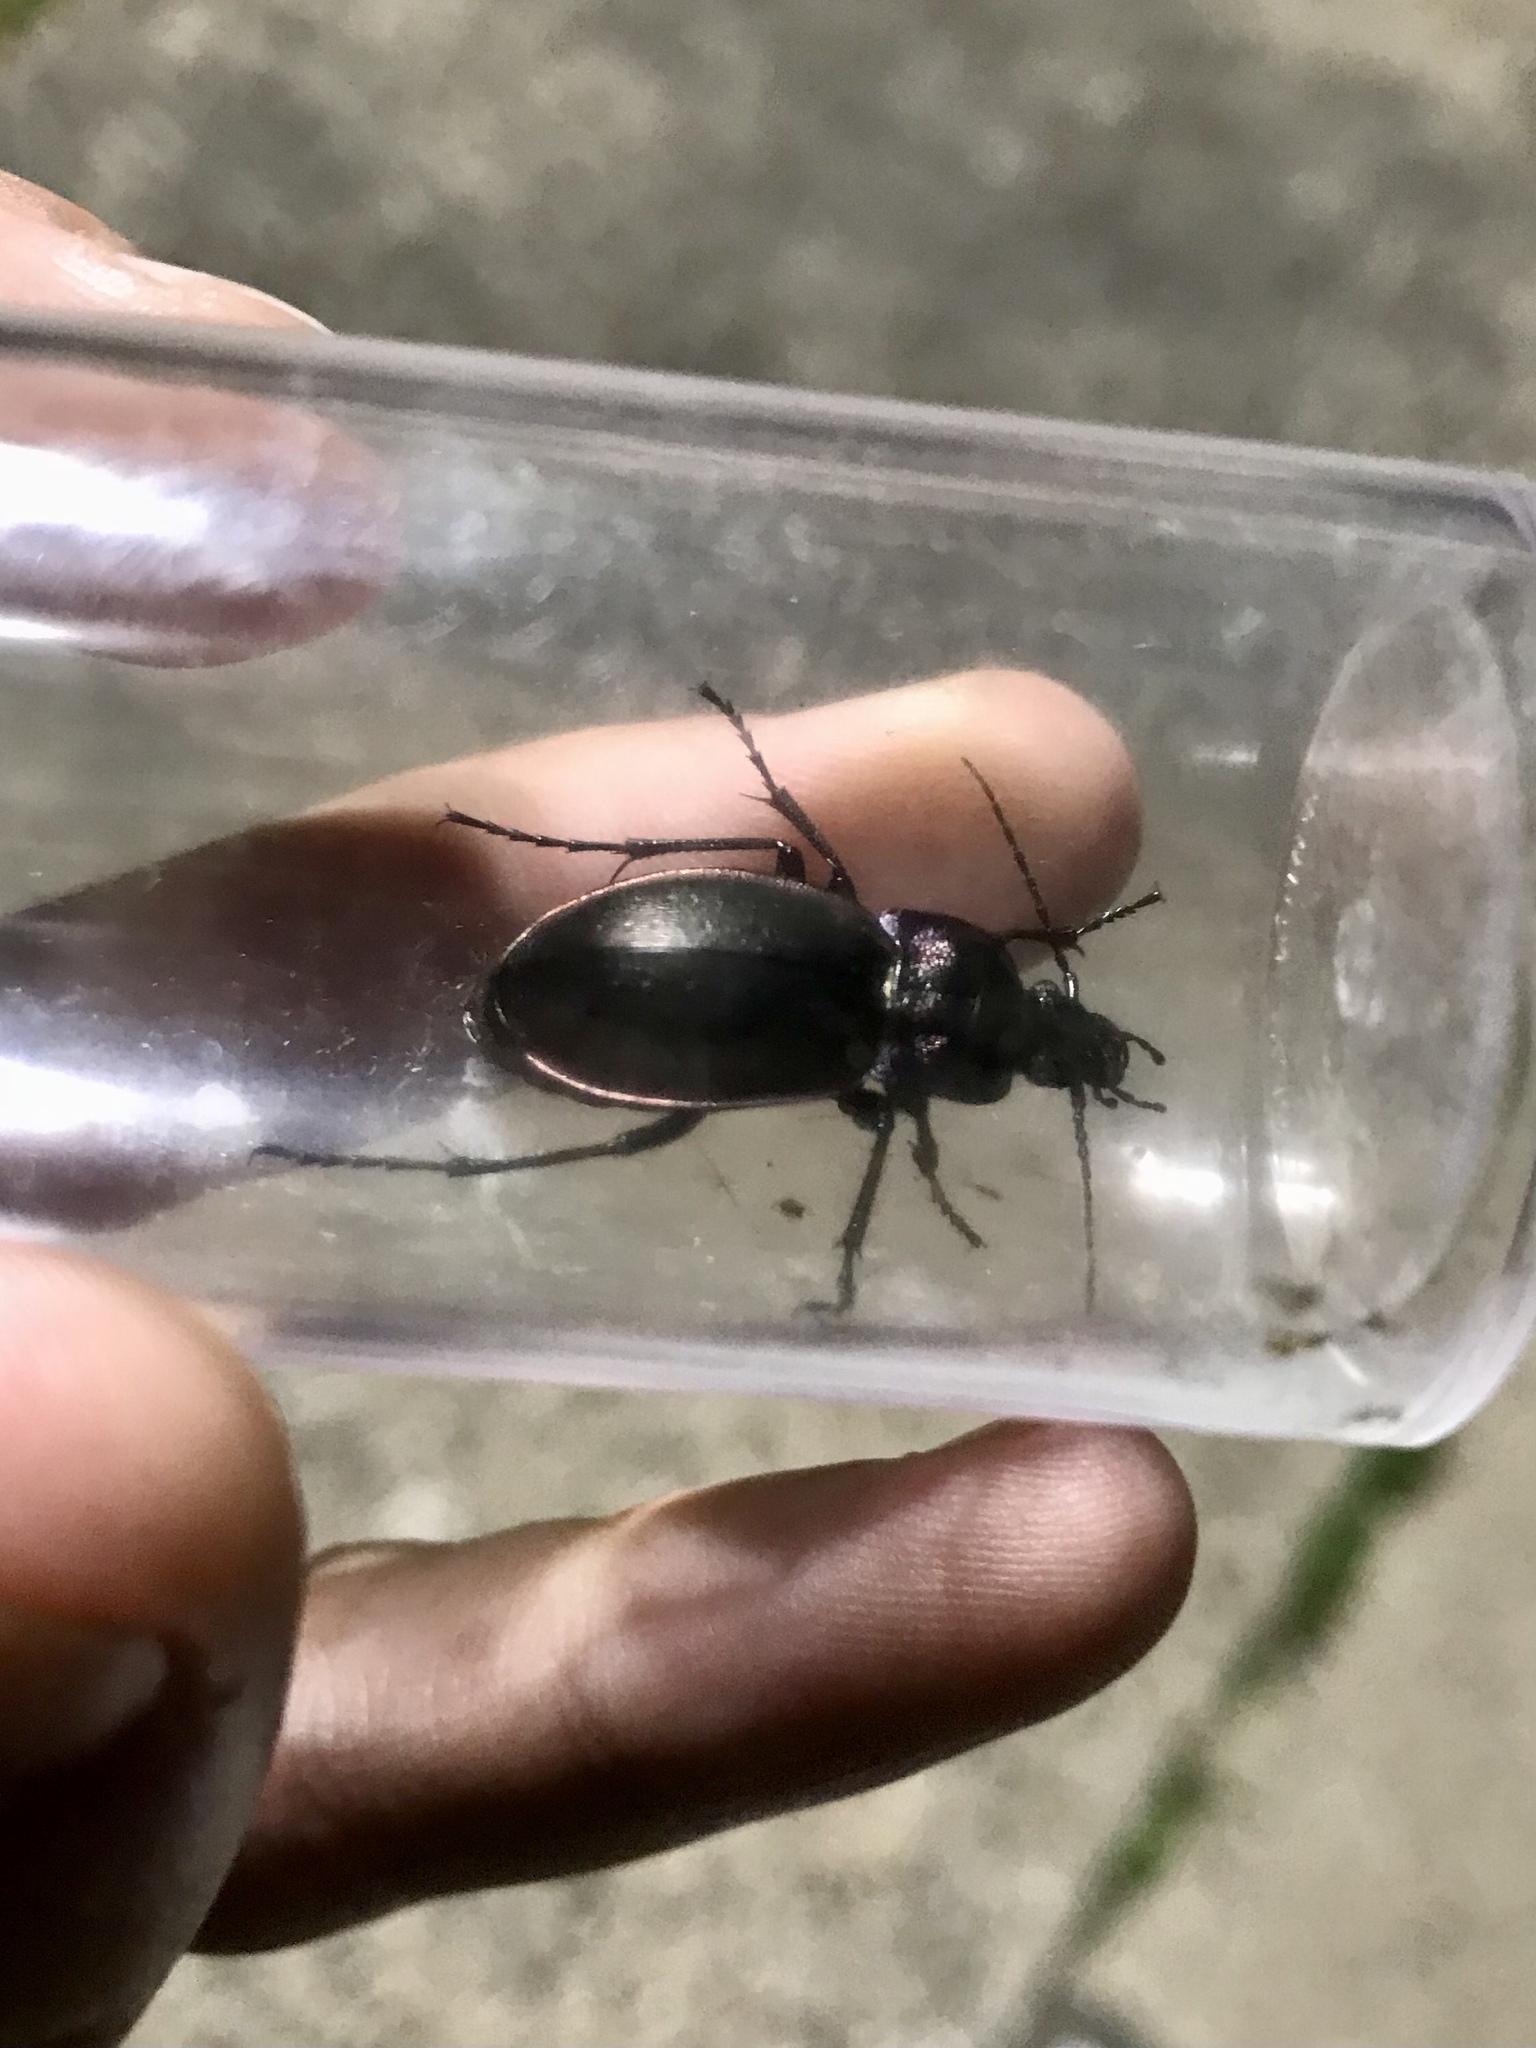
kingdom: Animalia
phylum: Arthropoda
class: Insecta
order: Coleoptera
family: Carabidae
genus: Carabus
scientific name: Carabus nemoralis
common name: European ground beetle
